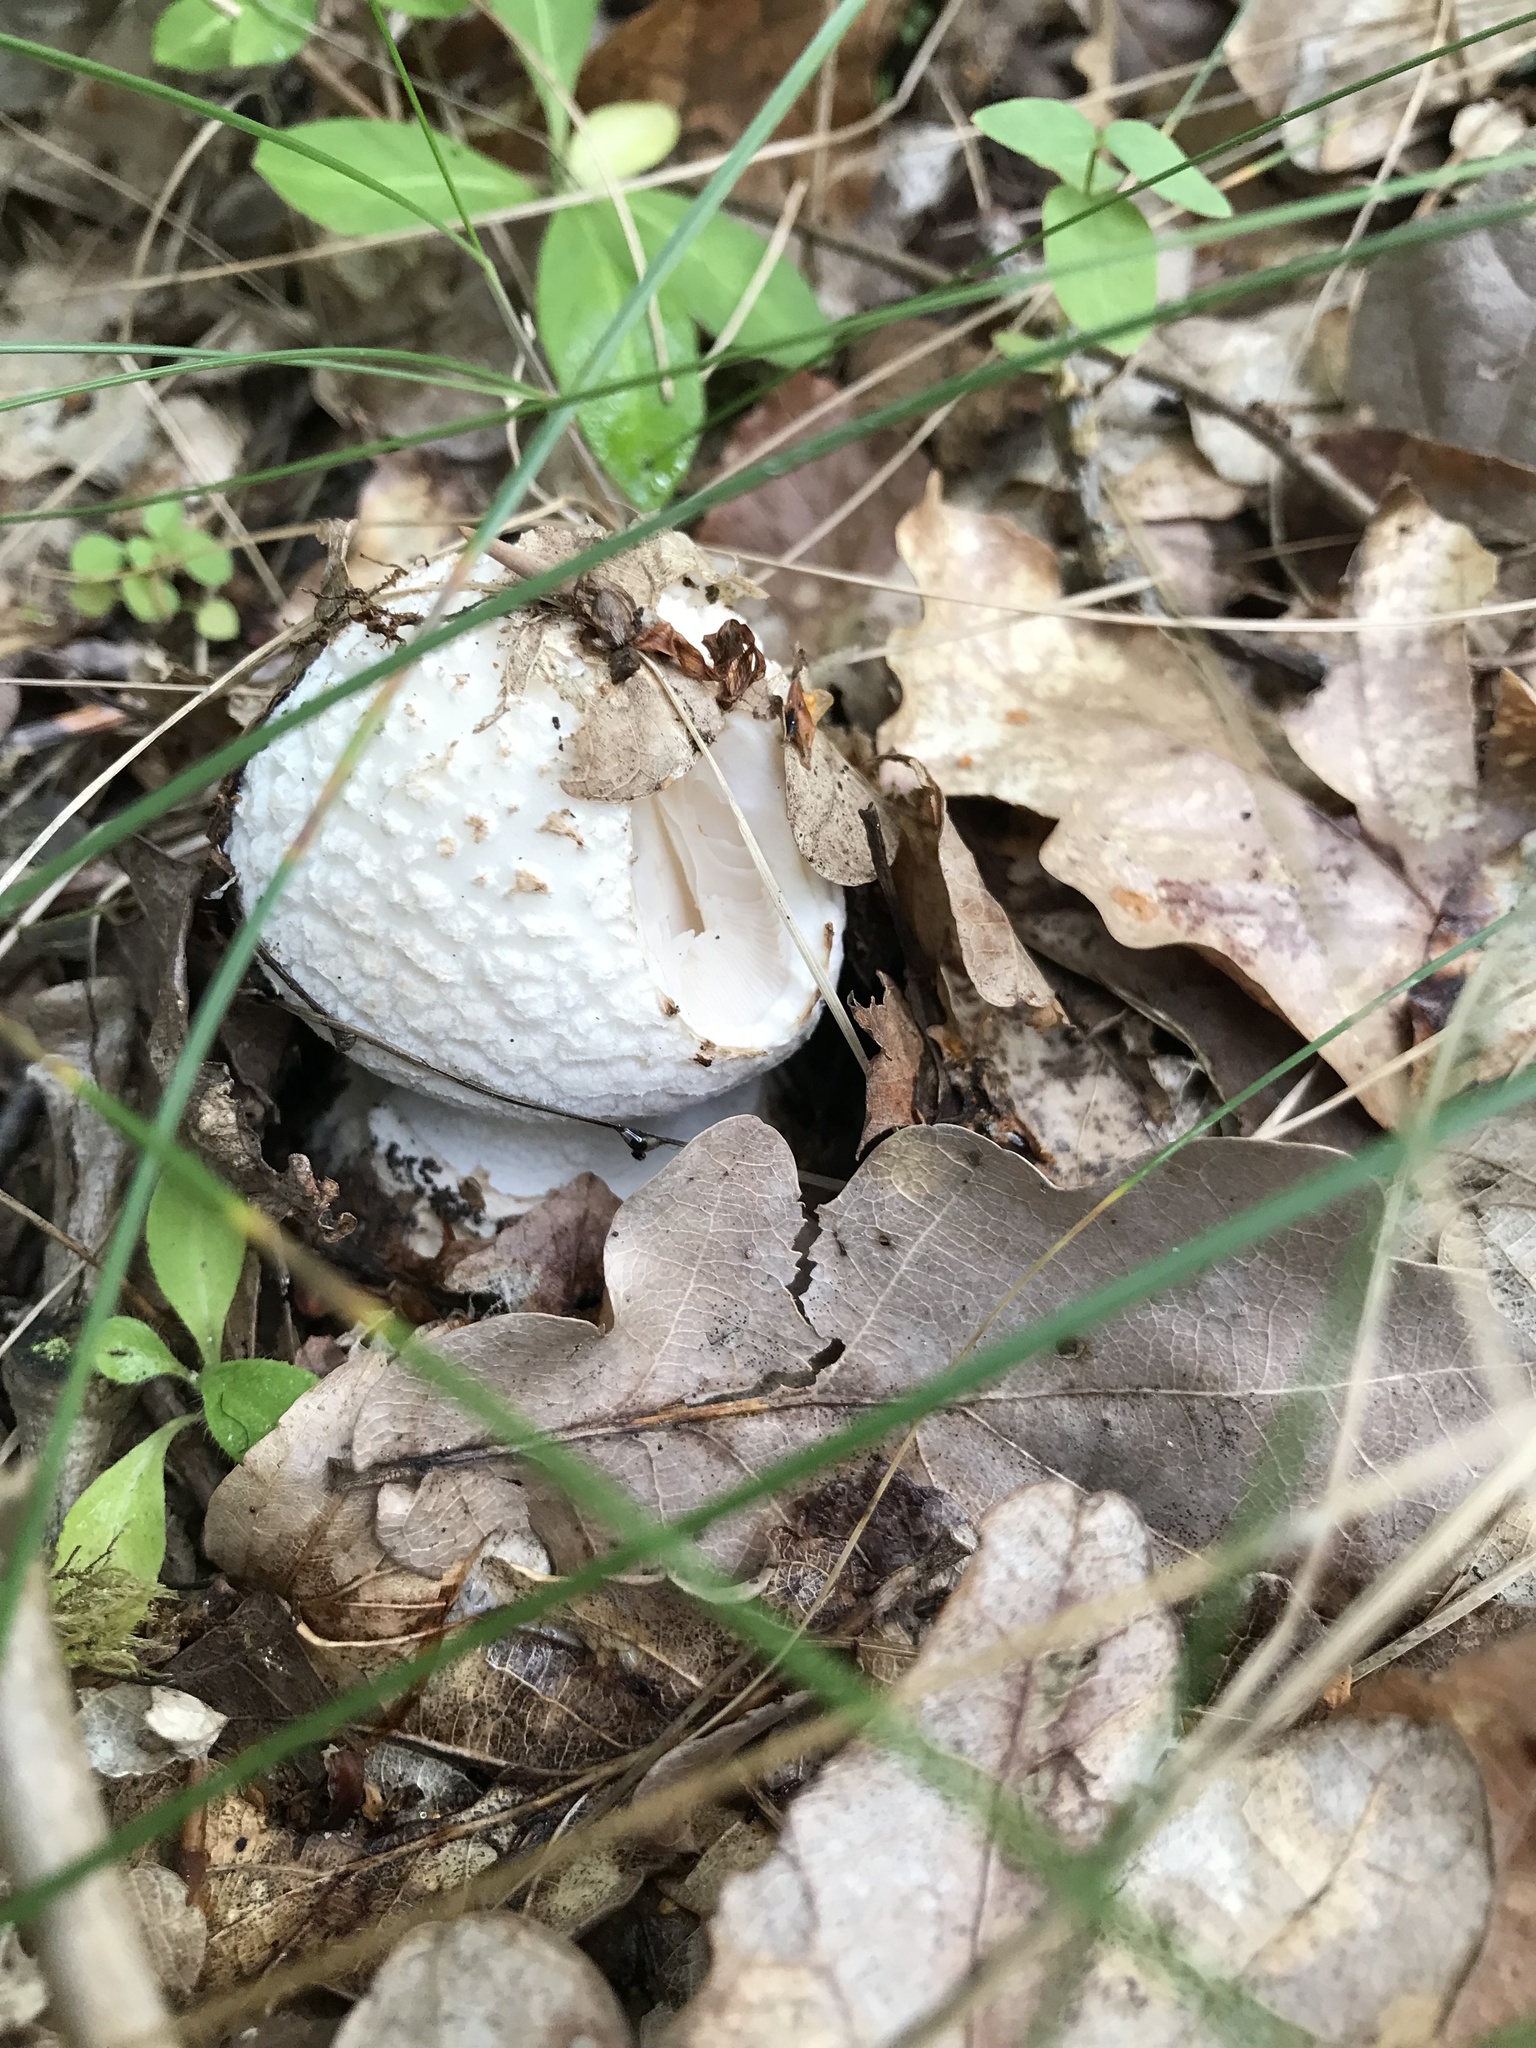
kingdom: Fungi
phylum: Basidiomycota
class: Agaricomycetes
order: Agaricales
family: Amanitaceae
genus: Amanita
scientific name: Amanita citrina
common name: False death-cap
